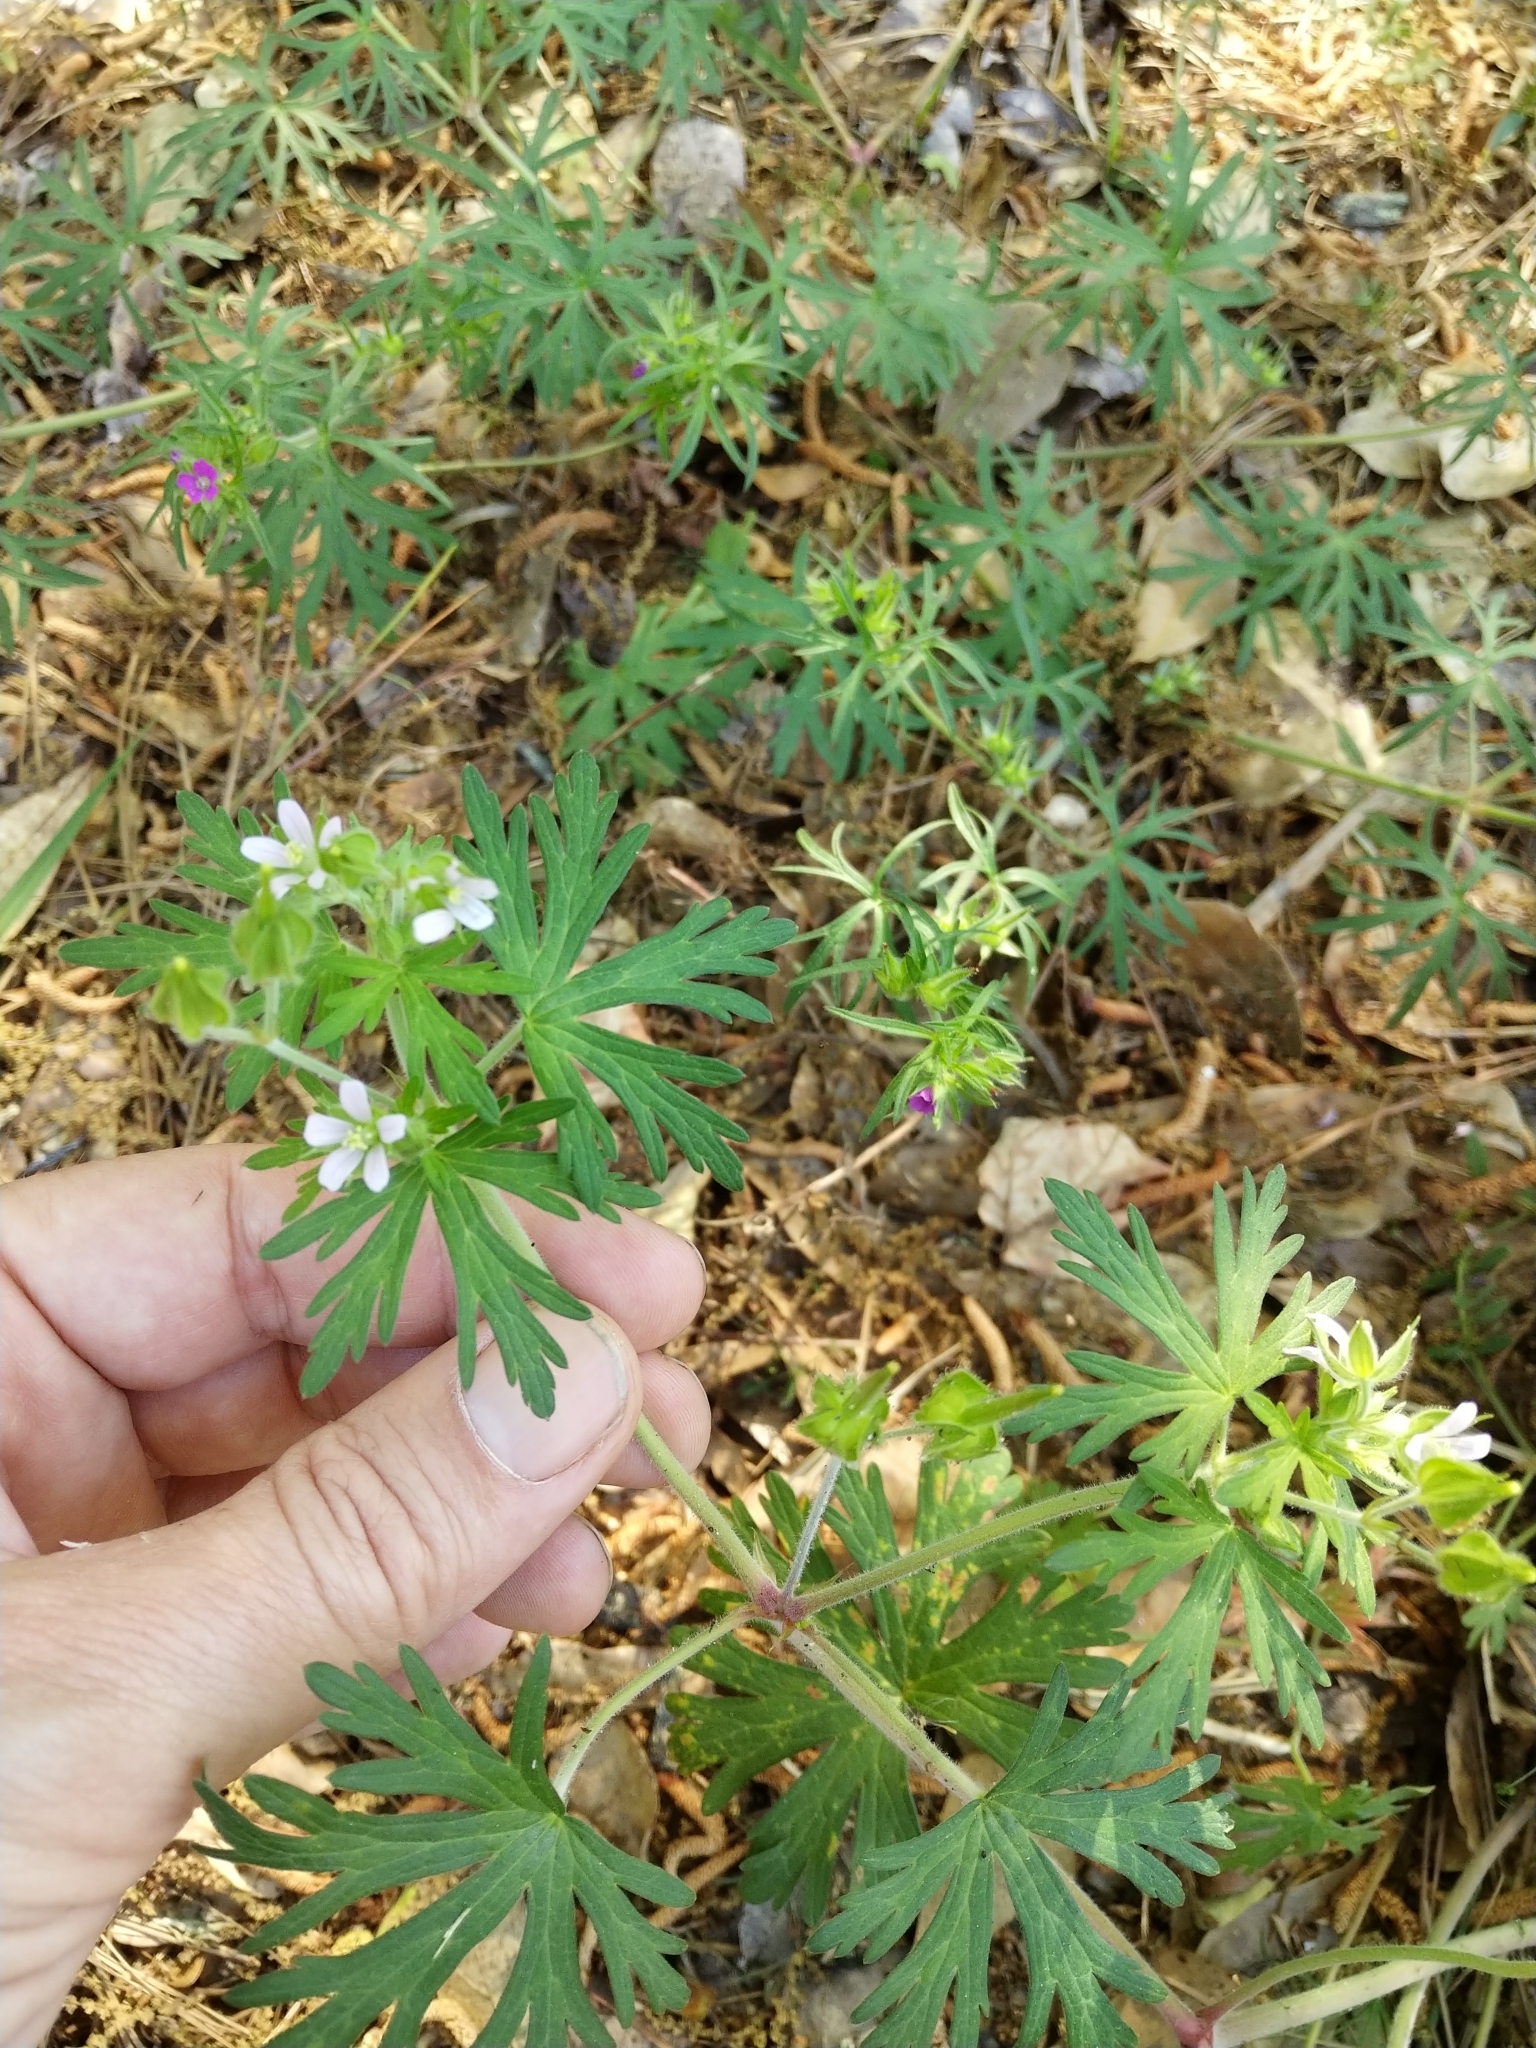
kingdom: Plantae
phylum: Tracheophyta
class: Magnoliopsida
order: Geraniales
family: Geraniaceae
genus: Geranium
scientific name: Geranium carolinianum
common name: Carolina crane's-bill
